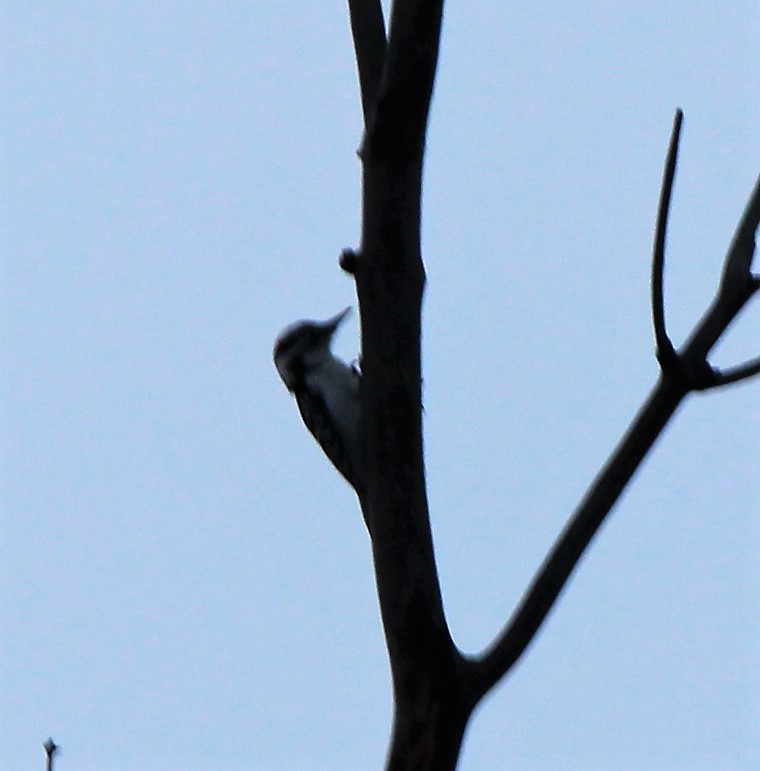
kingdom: Animalia
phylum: Chordata
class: Aves
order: Piciformes
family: Picidae
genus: Leuconotopicus
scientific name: Leuconotopicus villosus
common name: Hairy woodpecker
